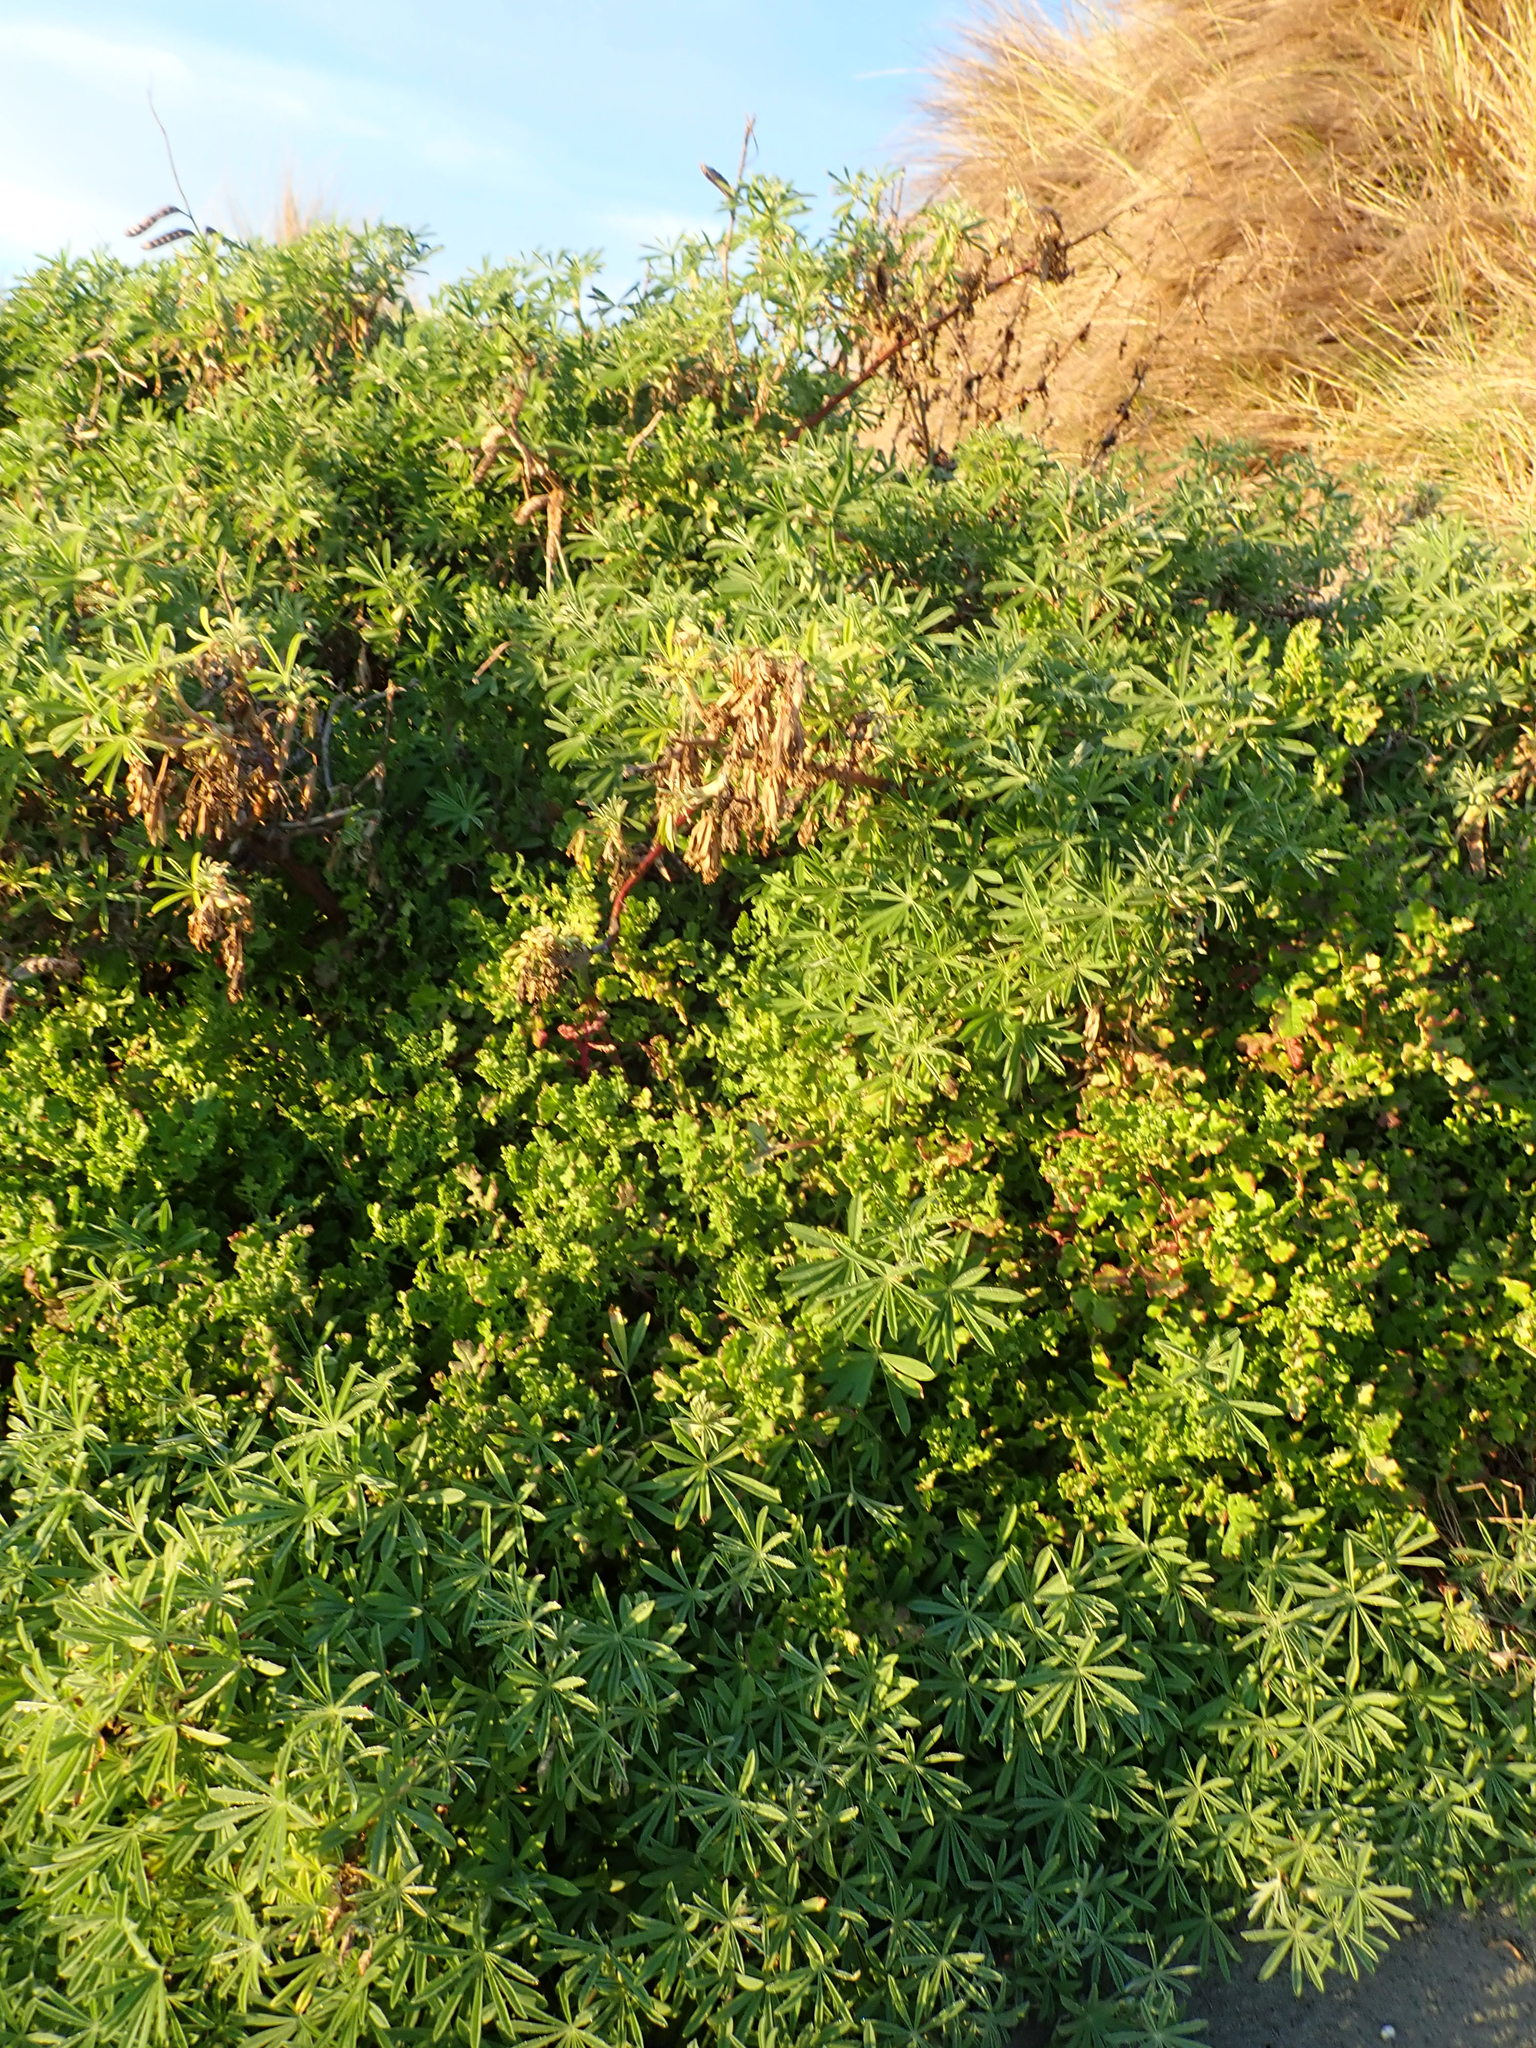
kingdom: Plantae
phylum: Tracheophyta
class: Magnoliopsida
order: Fabales
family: Fabaceae
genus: Lupinus
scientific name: Lupinus arboreus
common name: Yellow bush lupine
